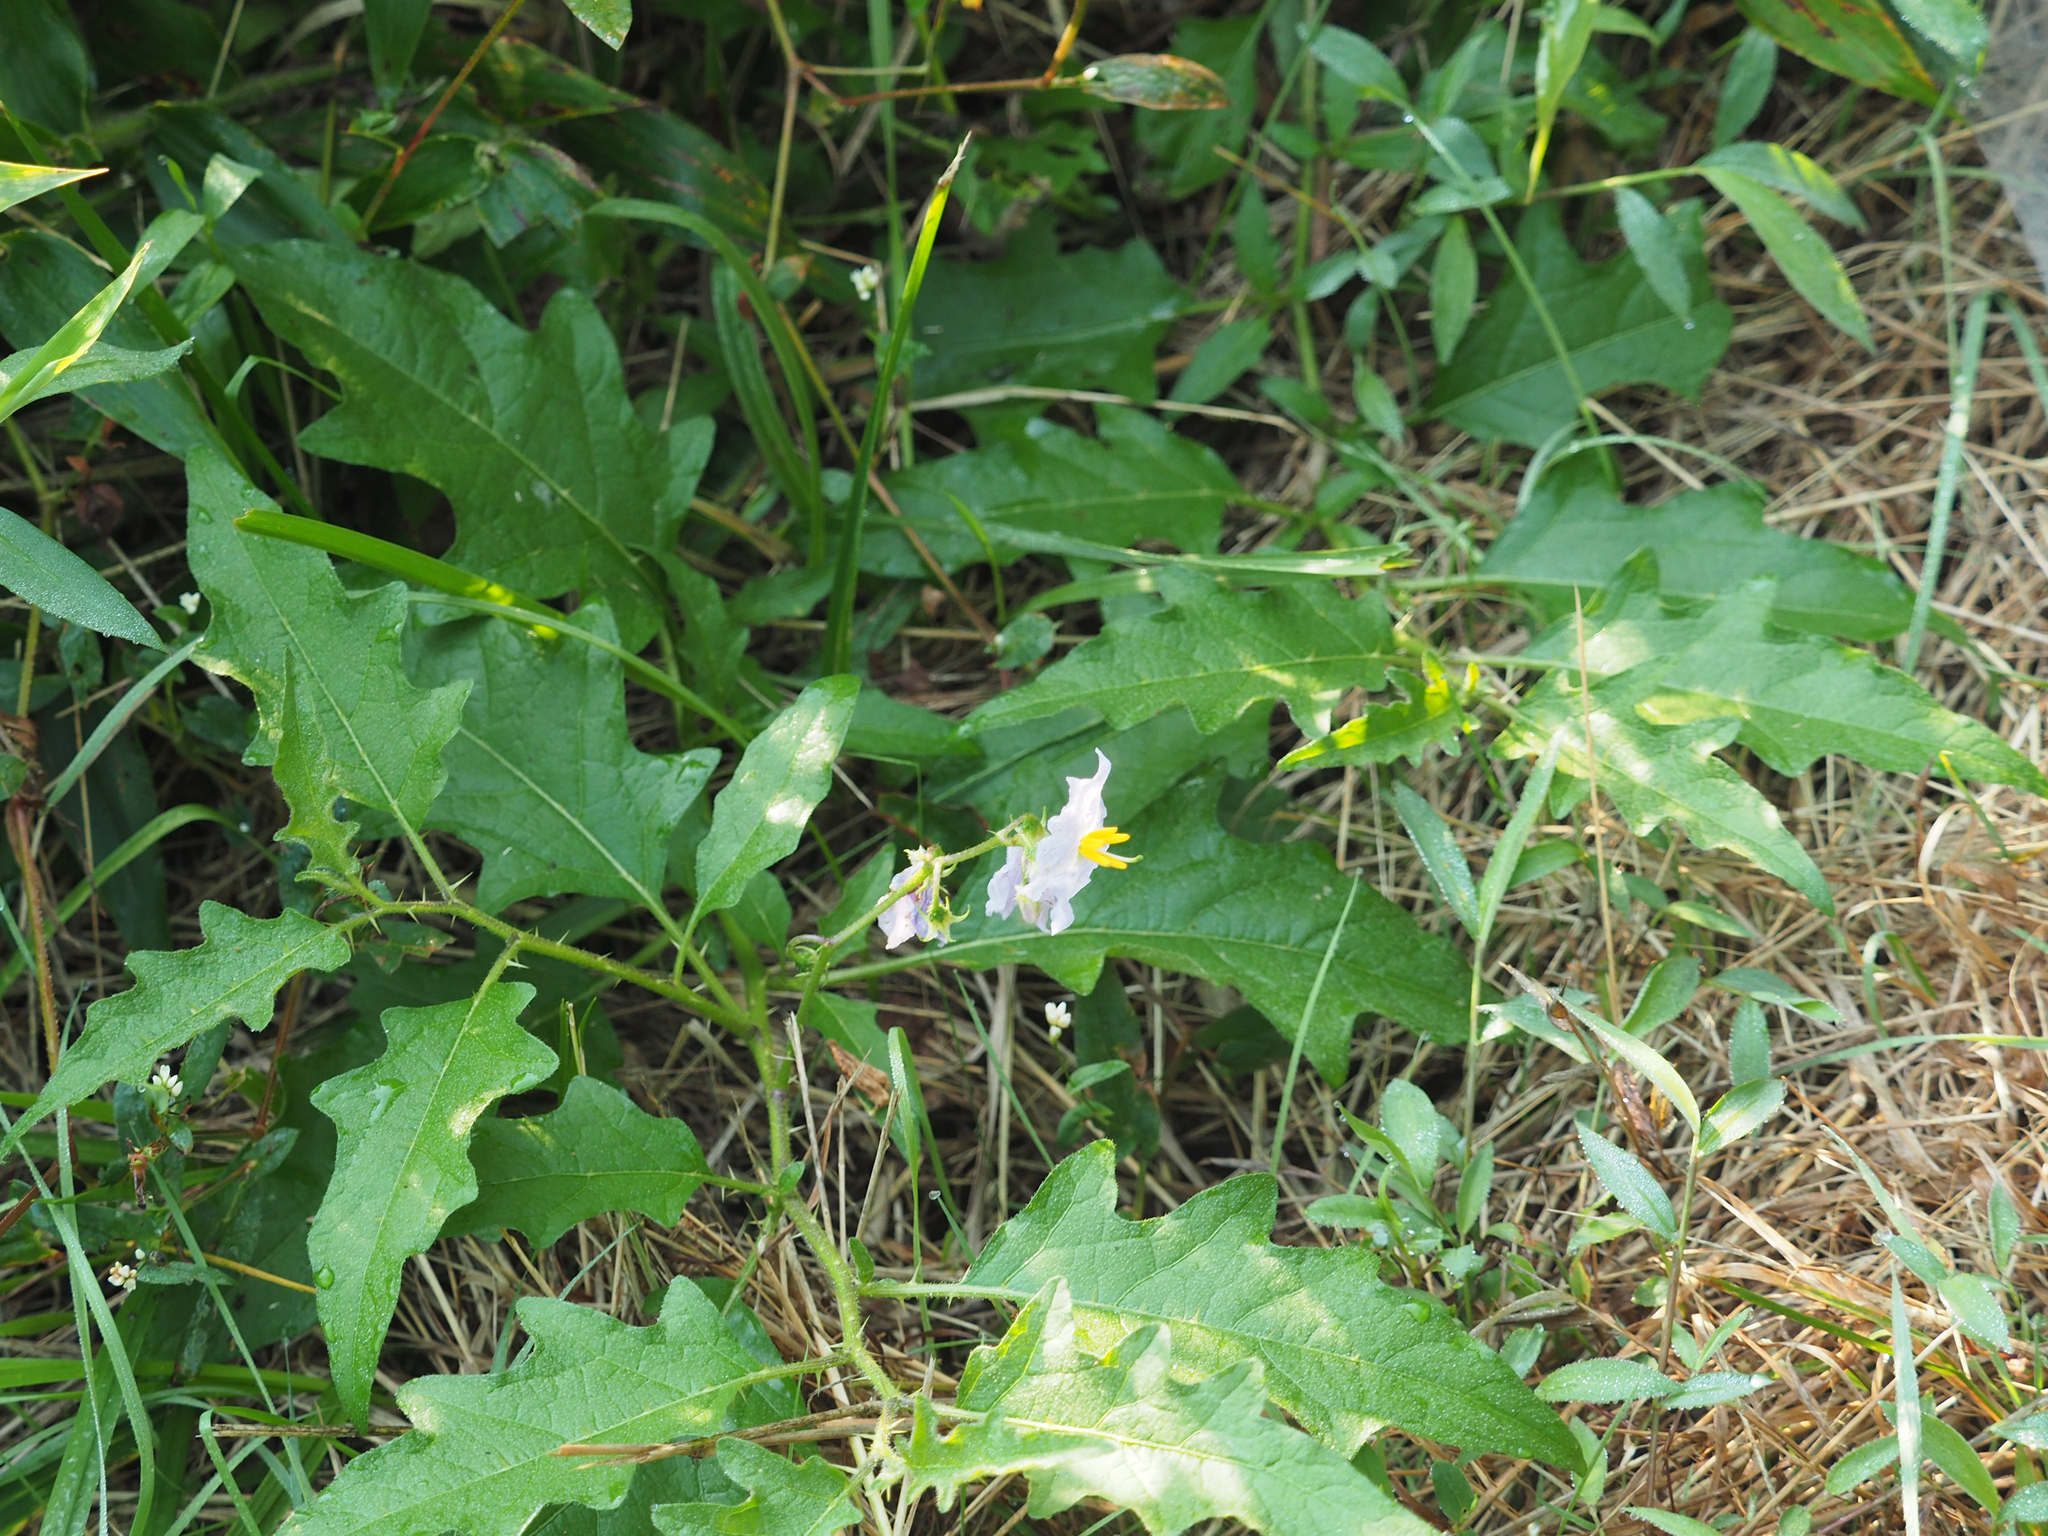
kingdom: Plantae
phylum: Tracheophyta
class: Magnoliopsida
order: Solanales
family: Solanaceae
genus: Solanum
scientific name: Solanum carolinense
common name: Horse-nettle
